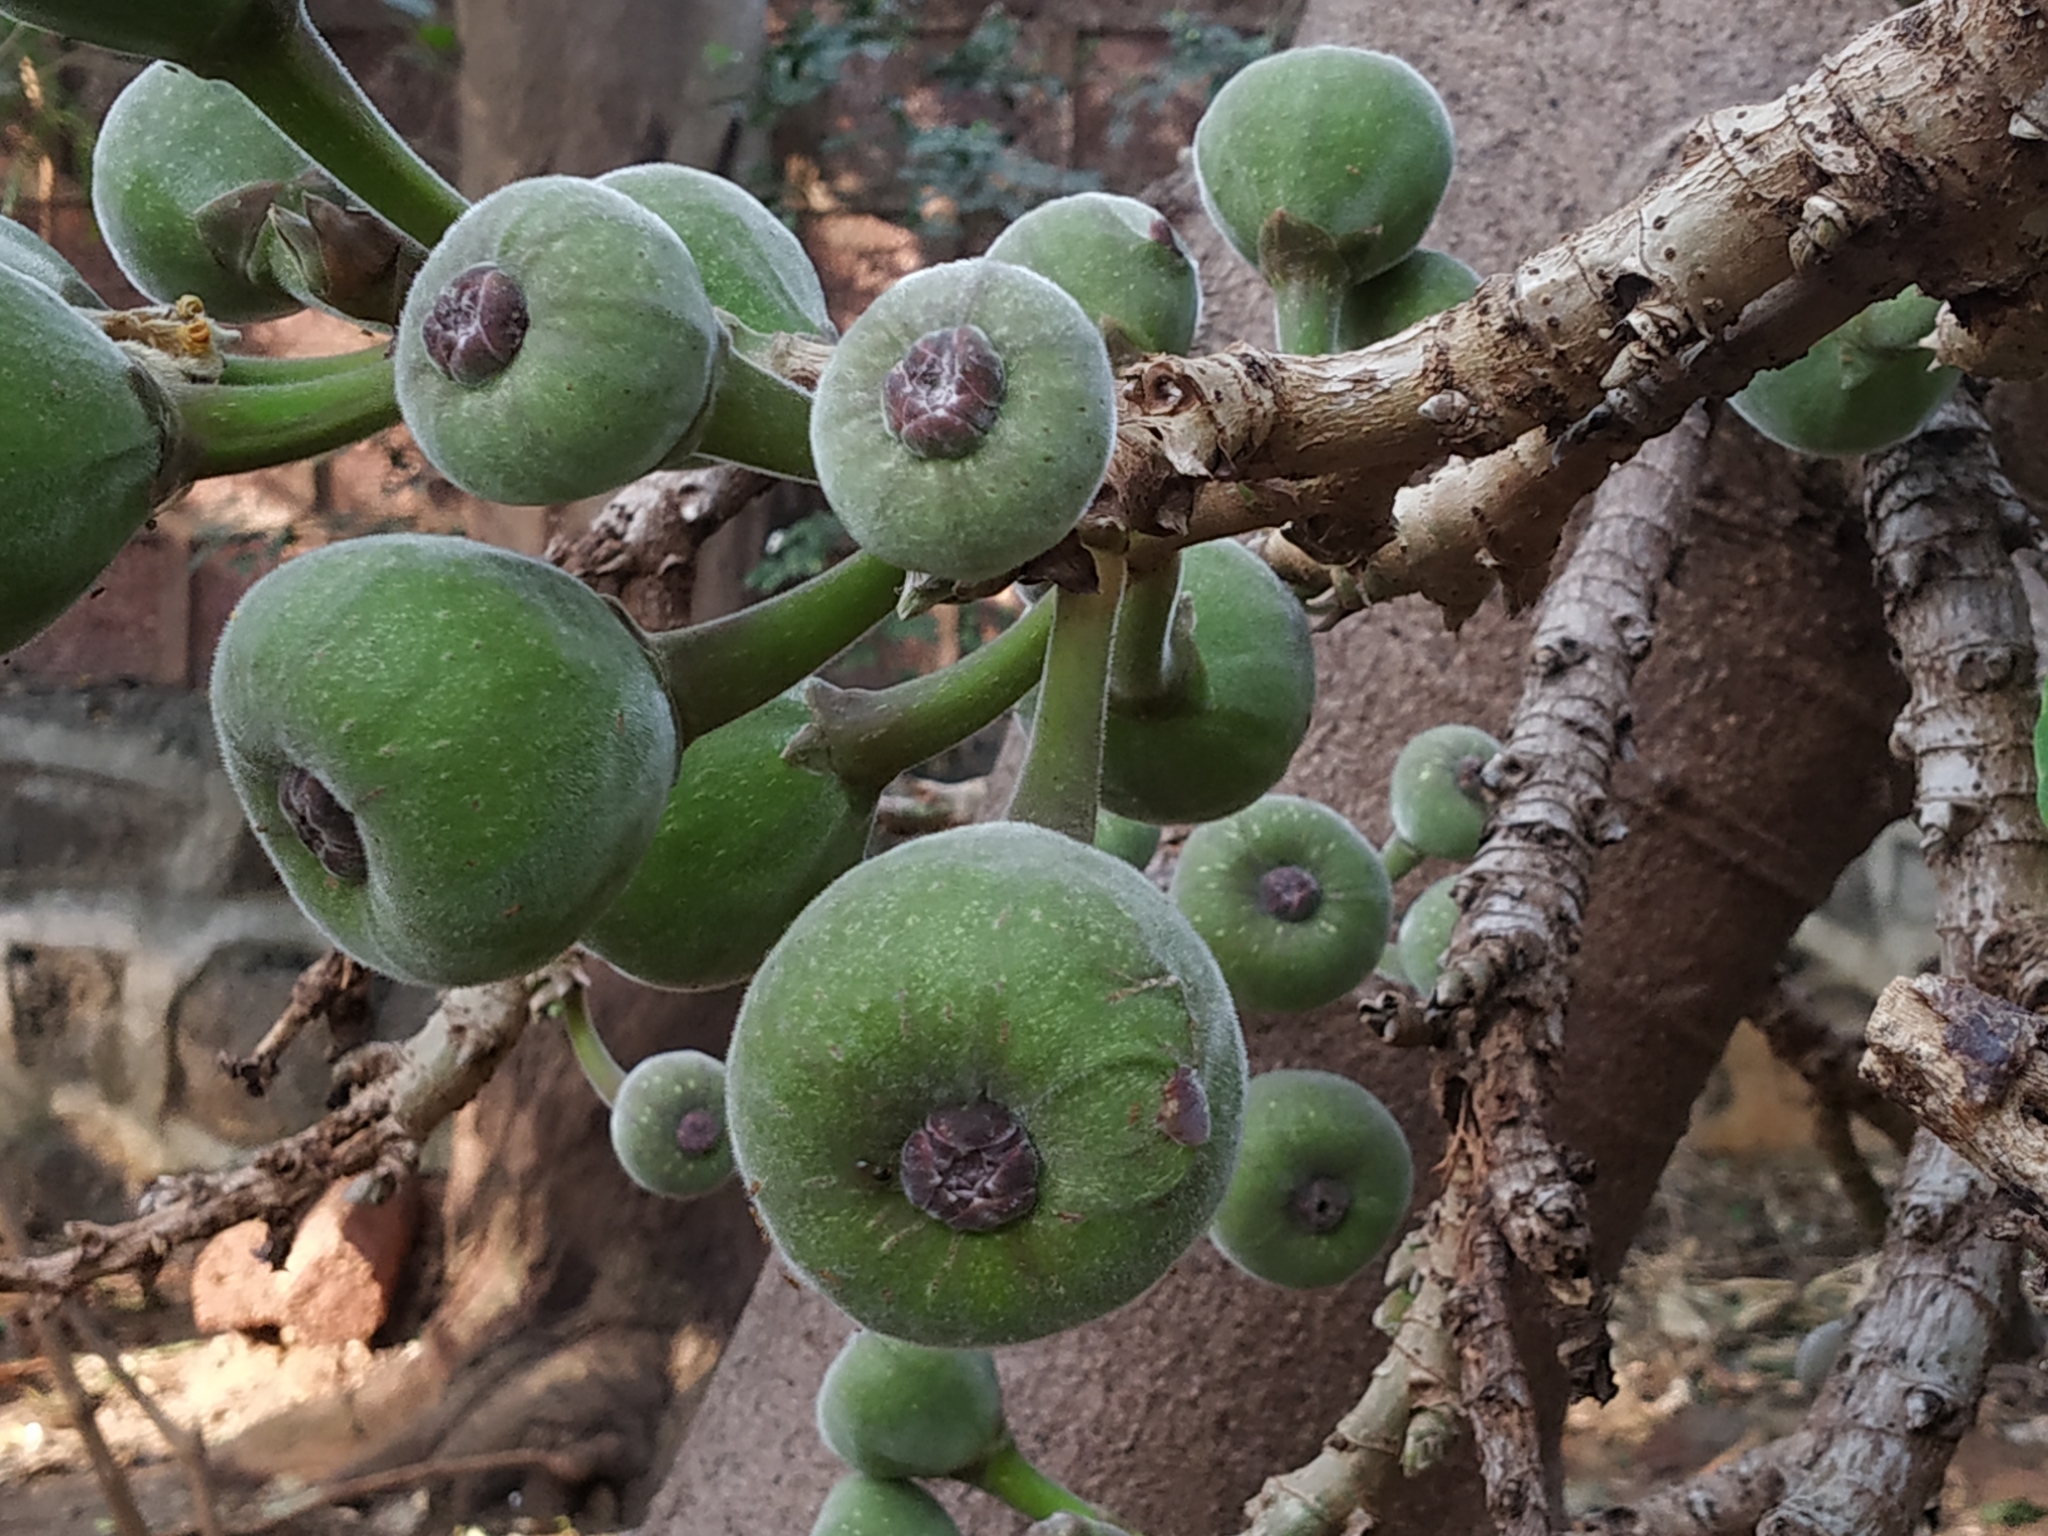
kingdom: Plantae
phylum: Tracheophyta
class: Magnoliopsida
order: Rosales
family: Moraceae
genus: Ficus
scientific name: Ficus macrophylla
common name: Moreton bay fig
